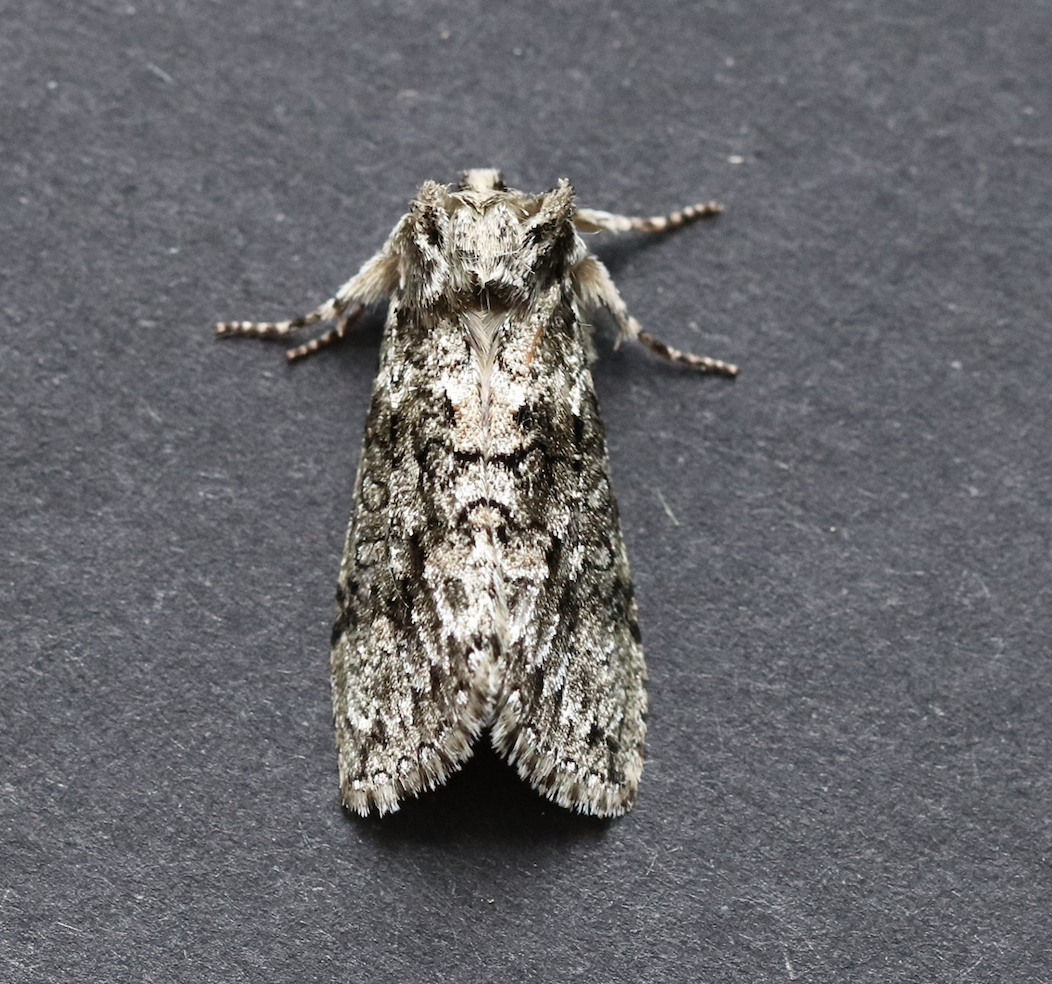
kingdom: Animalia
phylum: Arthropoda
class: Insecta
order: Lepidoptera
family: Drepanidae
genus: Polyploca
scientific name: Polyploca ridens
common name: Frosted green
